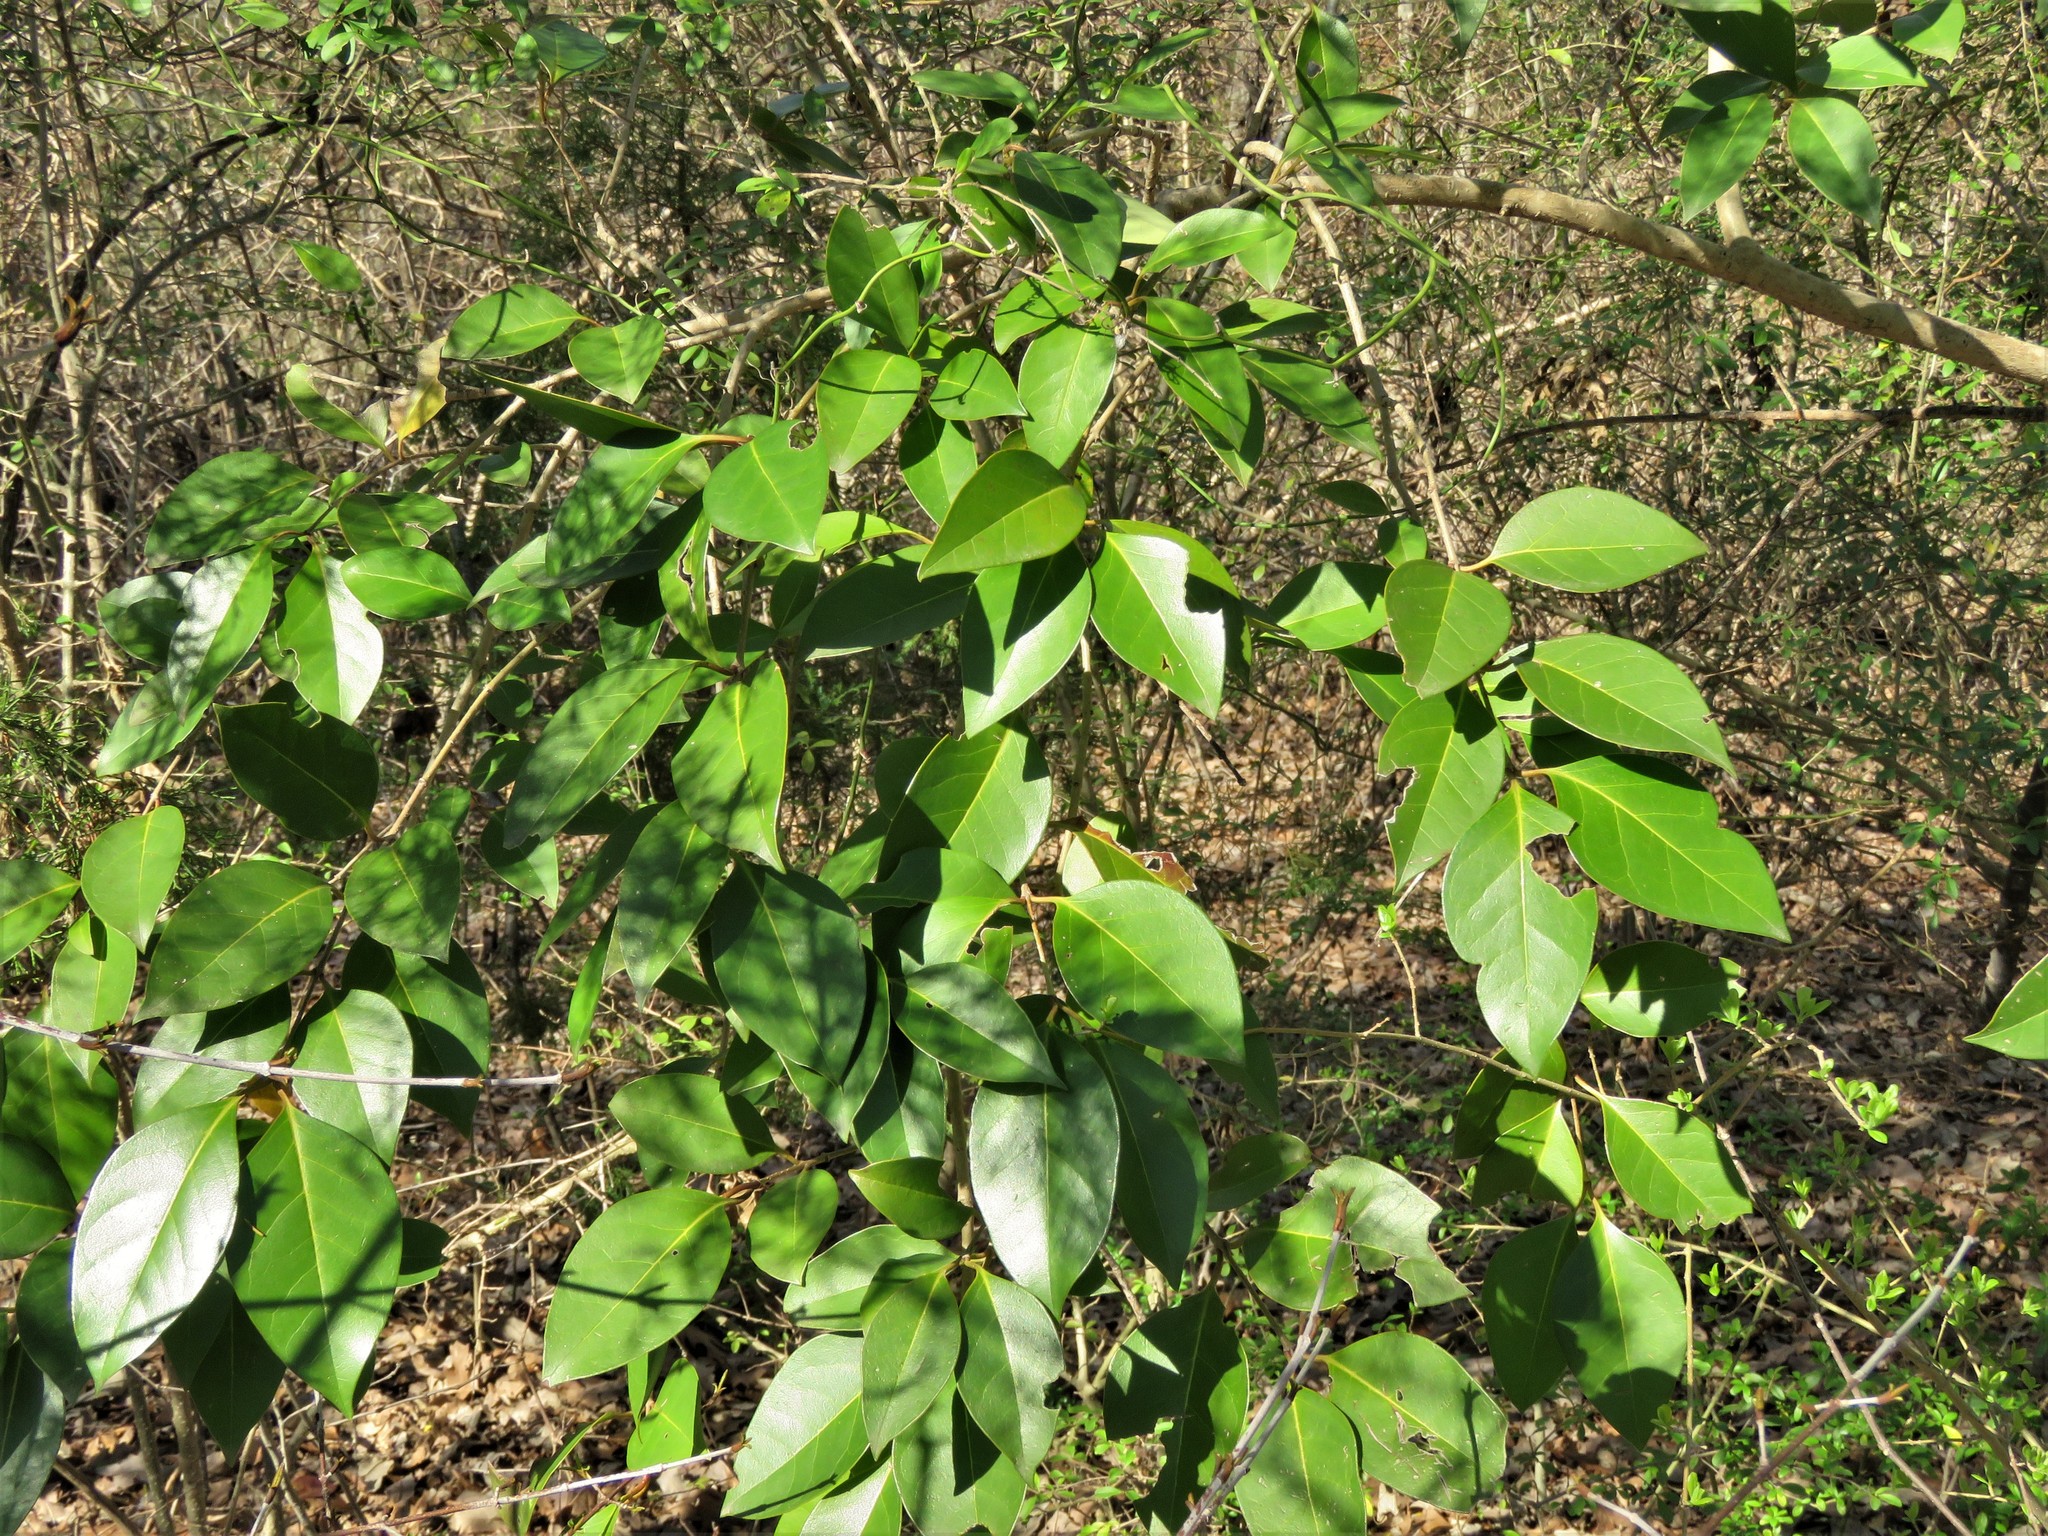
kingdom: Plantae
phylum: Tracheophyta
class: Magnoliopsida
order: Lamiales
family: Oleaceae
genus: Ligustrum
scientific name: Ligustrum lucidum
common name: Glossy privet
